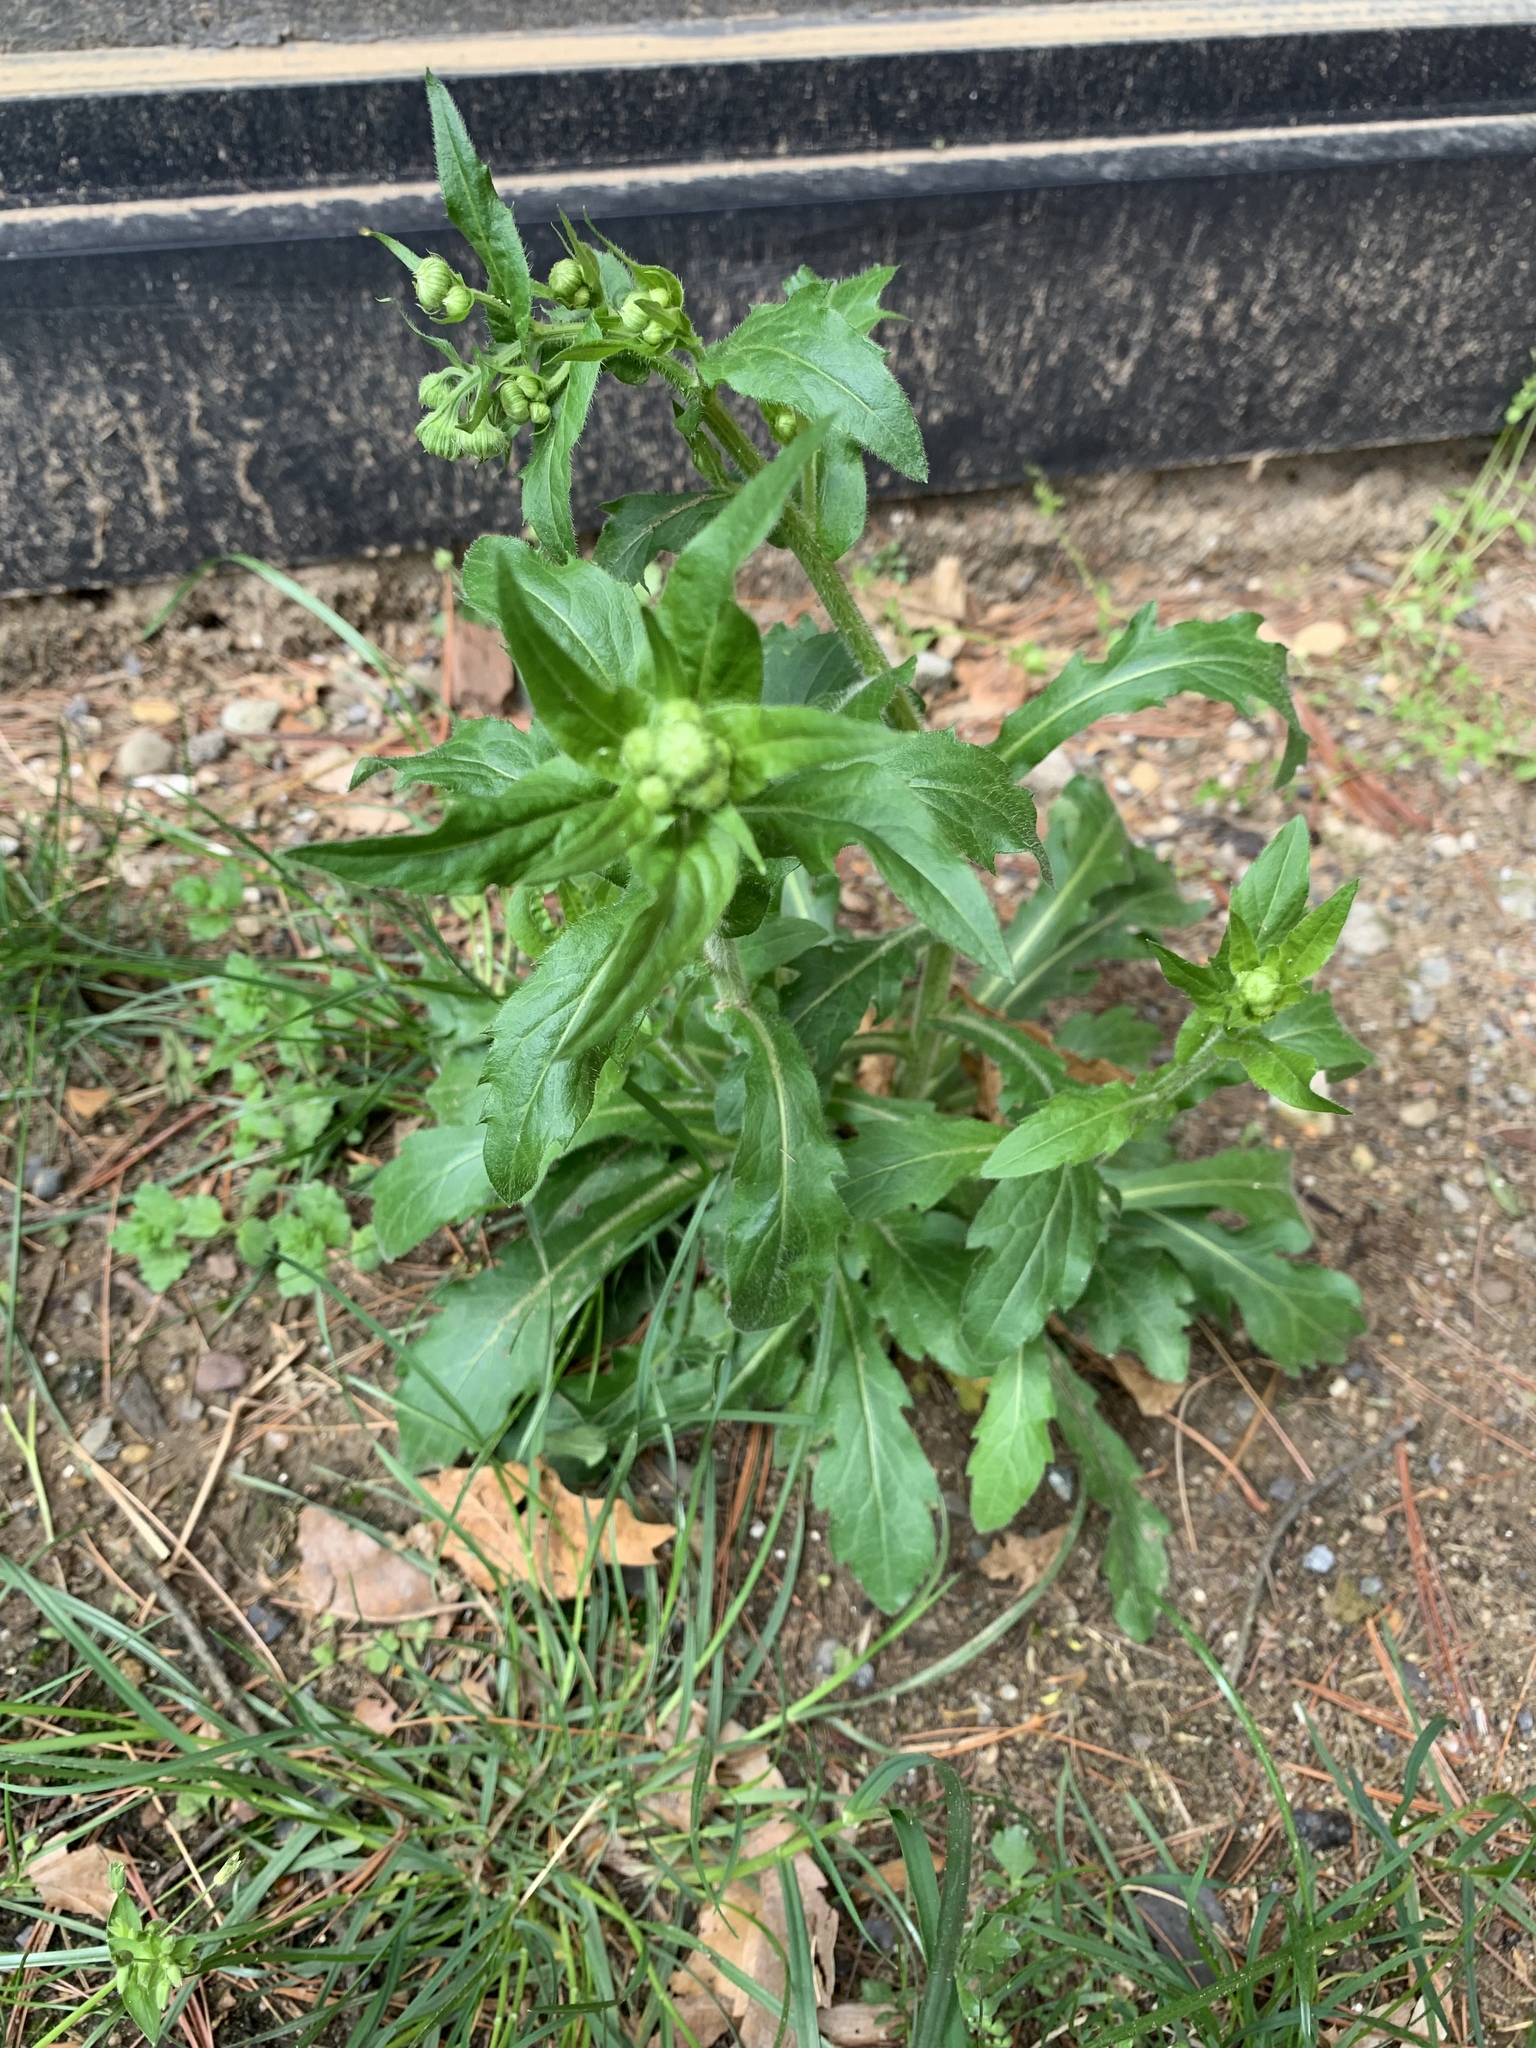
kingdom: Plantae
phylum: Tracheophyta
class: Magnoliopsida
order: Asterales
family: Asteraceae
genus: Erigeron
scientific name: Erigeron philadelphicus
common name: Robin's-plantain
